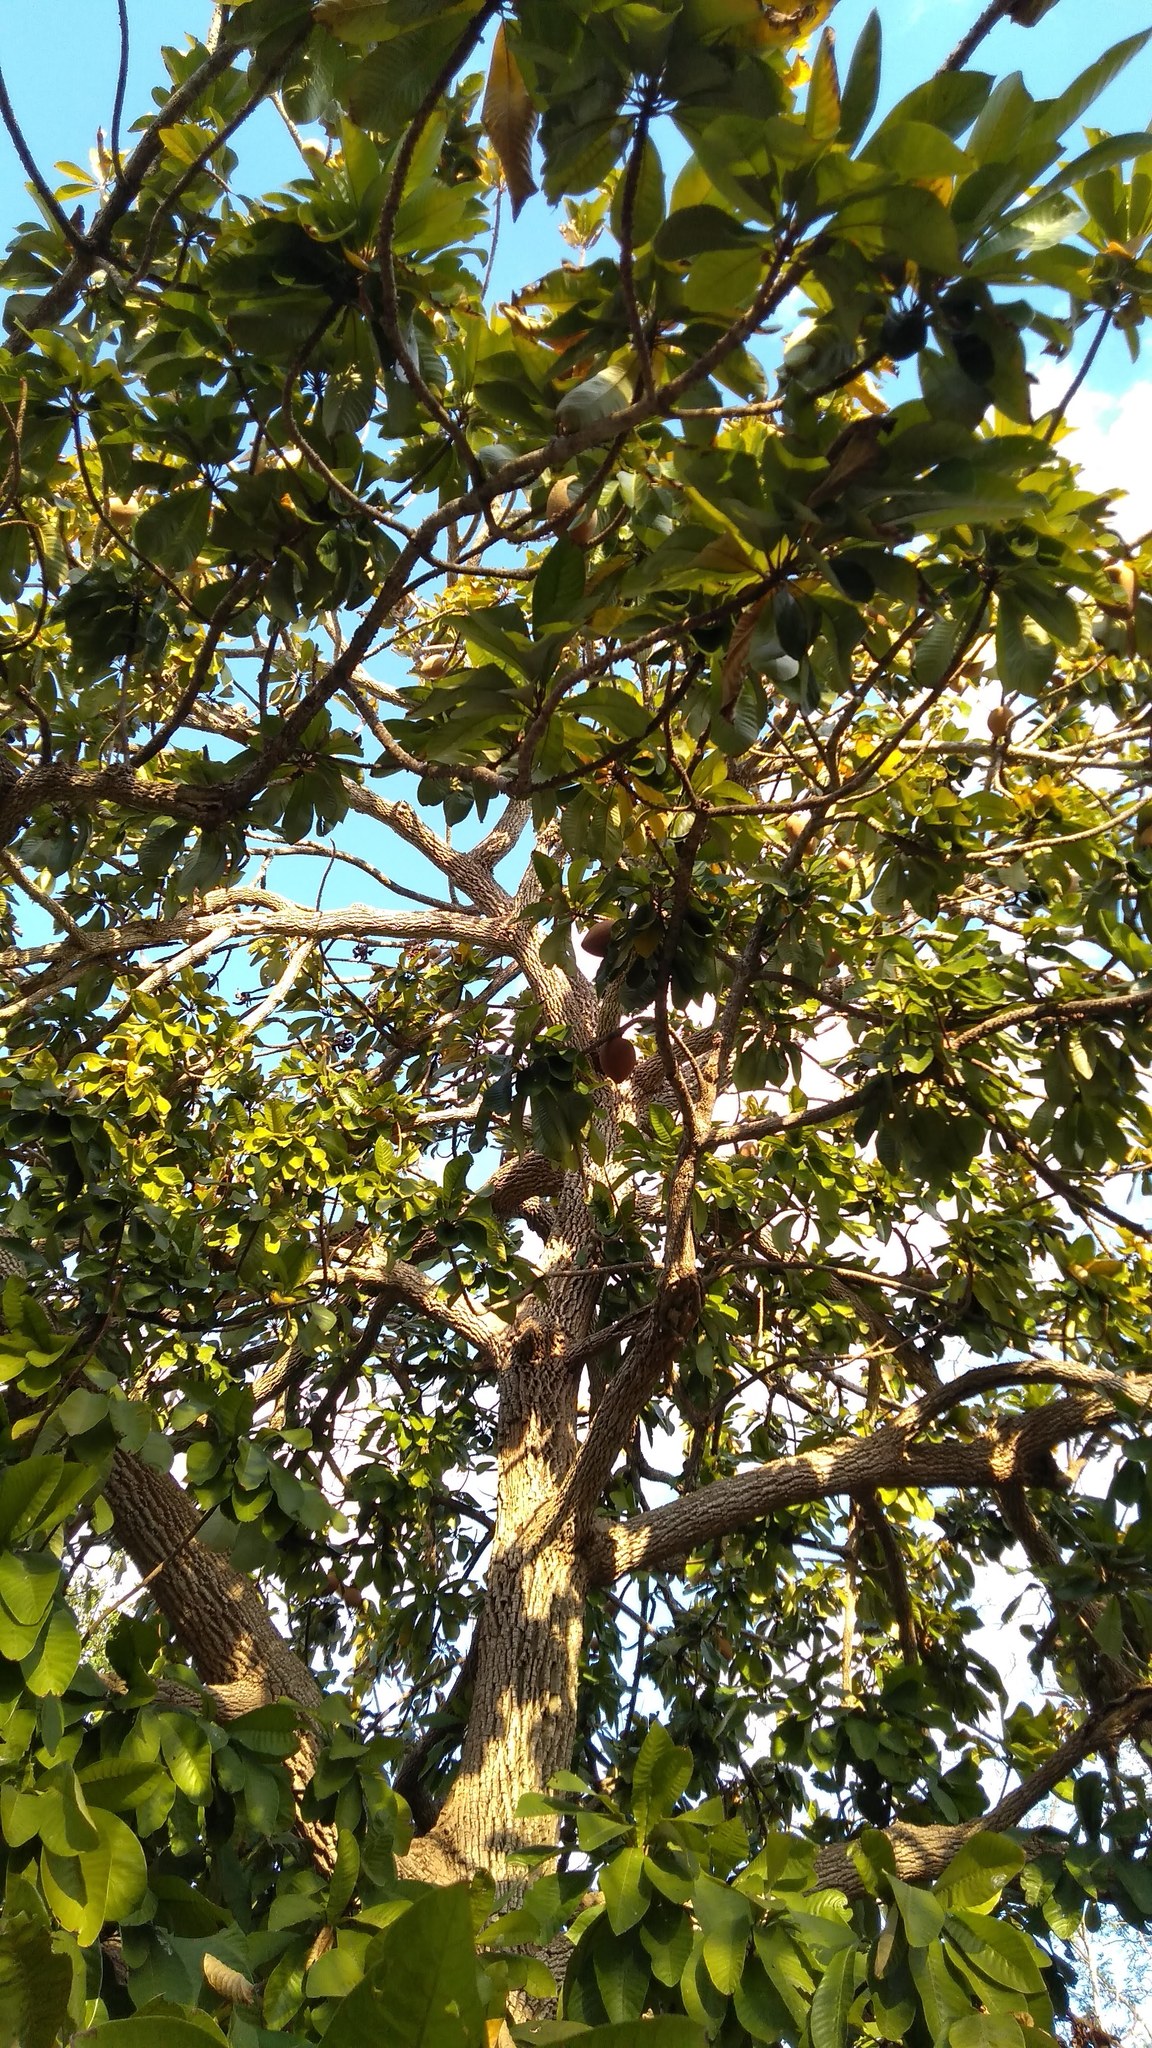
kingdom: Plantae
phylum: Tracheophyta
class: Magnoliopsida
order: Ericales
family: Sapotaceae
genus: Pouteria
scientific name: Pouteria sapota
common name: Mamey
